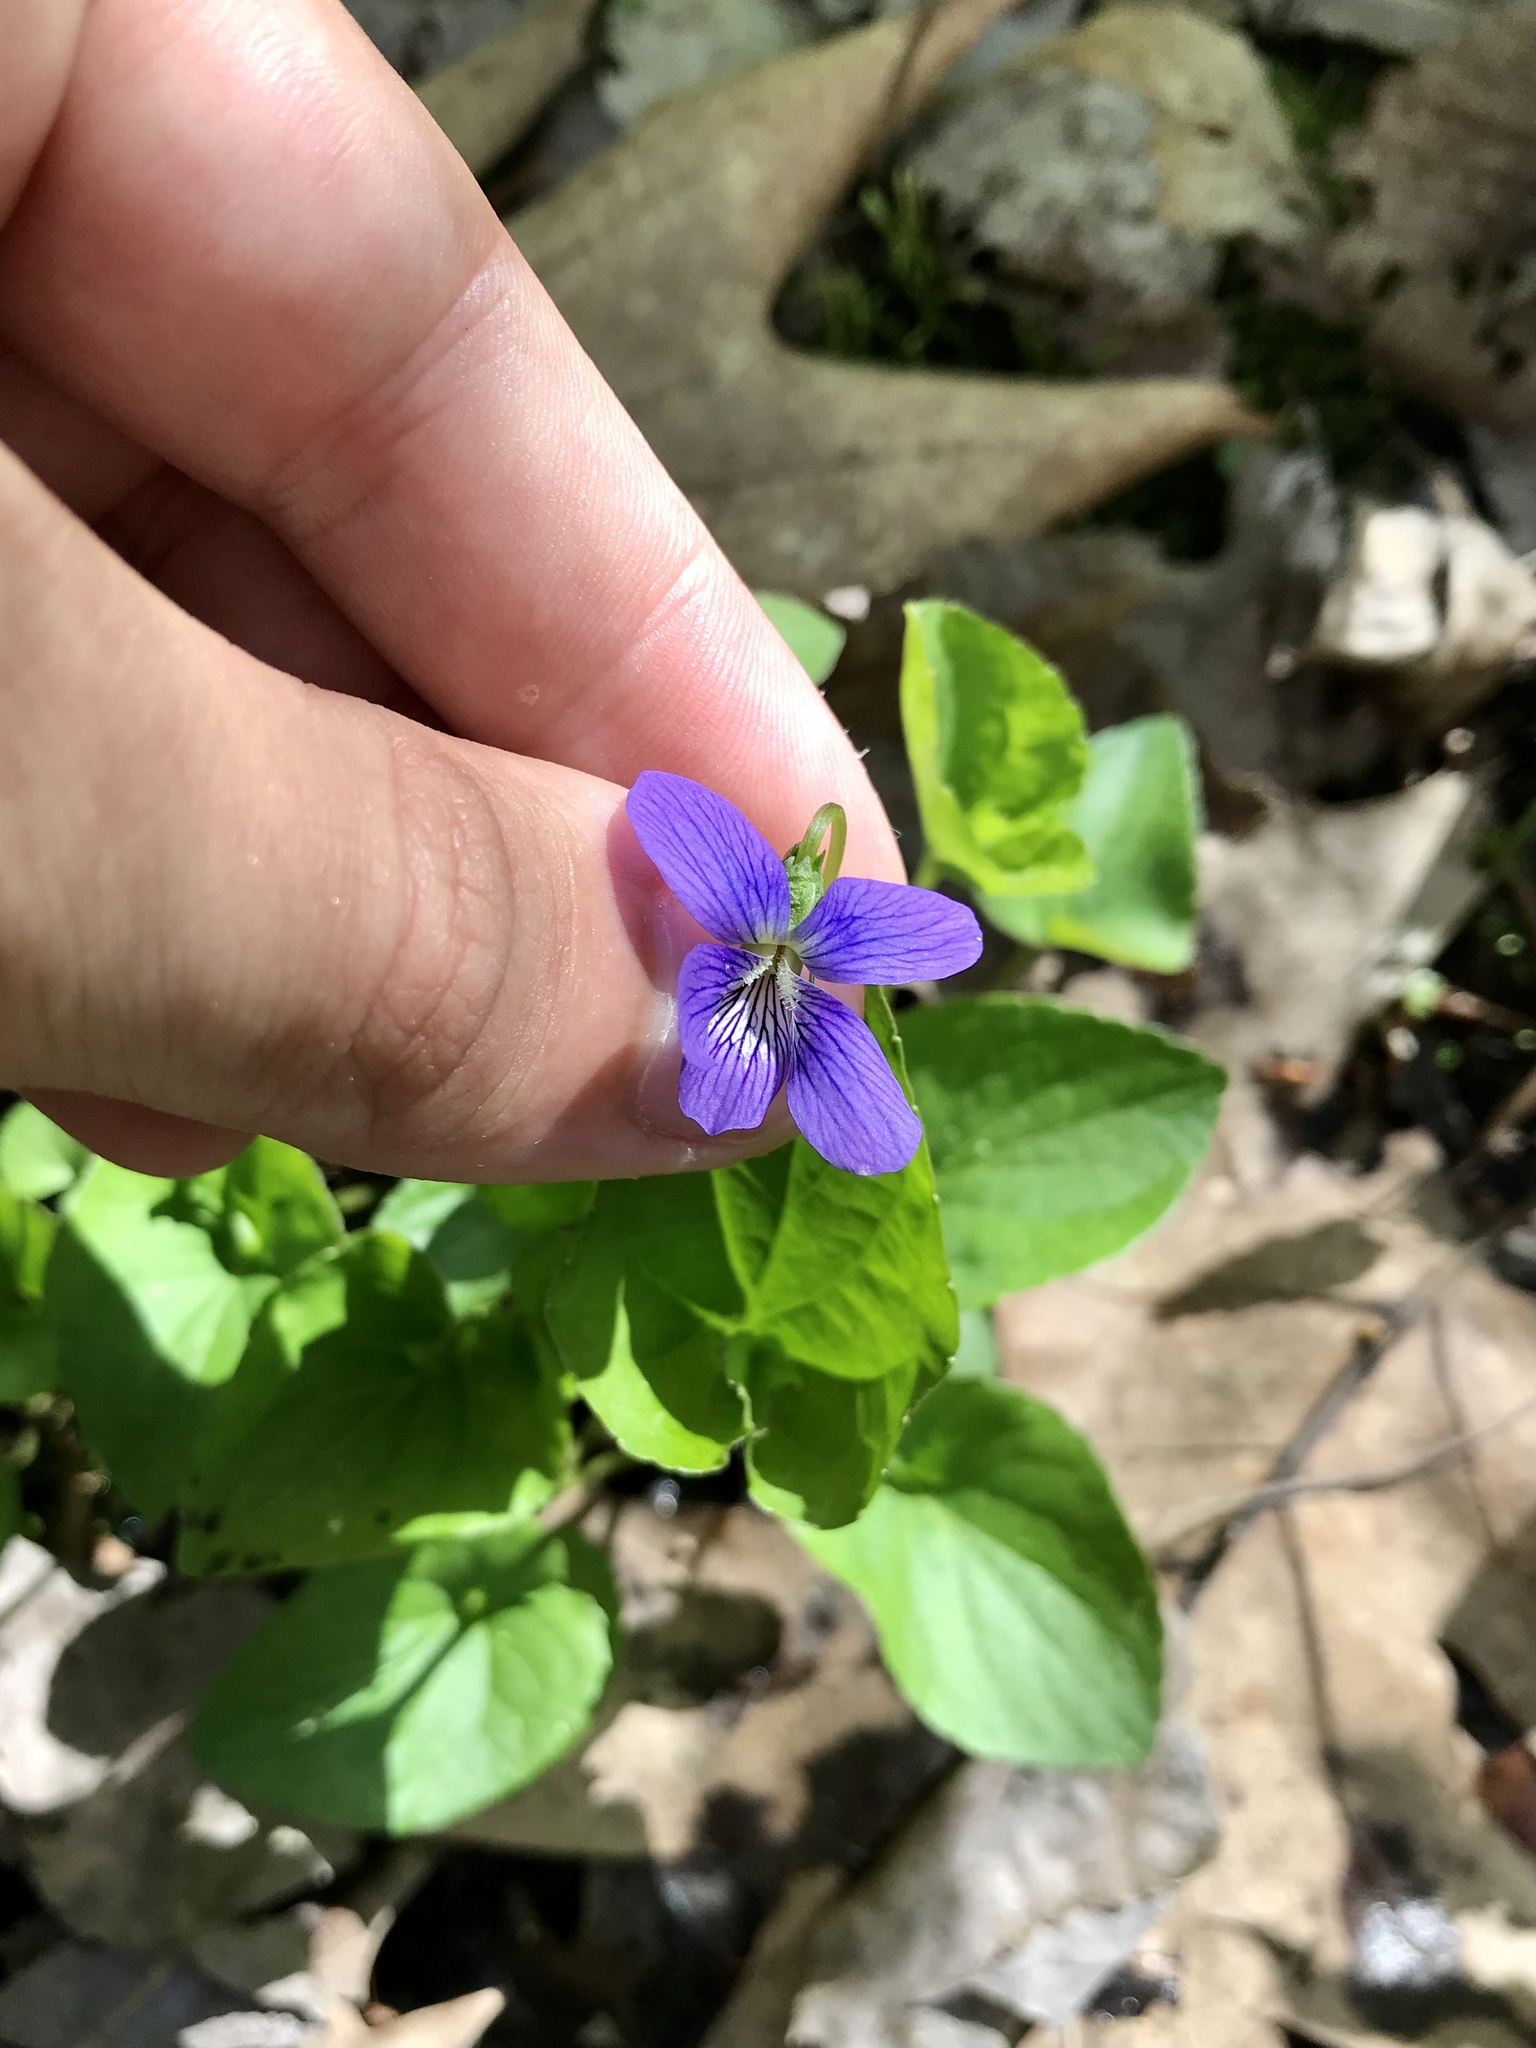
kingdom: Plantae
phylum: Tracheophyta
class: Magnoliopsida
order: Malpighiales
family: Violaceae
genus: Viola
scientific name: Viola cucullata
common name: Marsh blue violet
